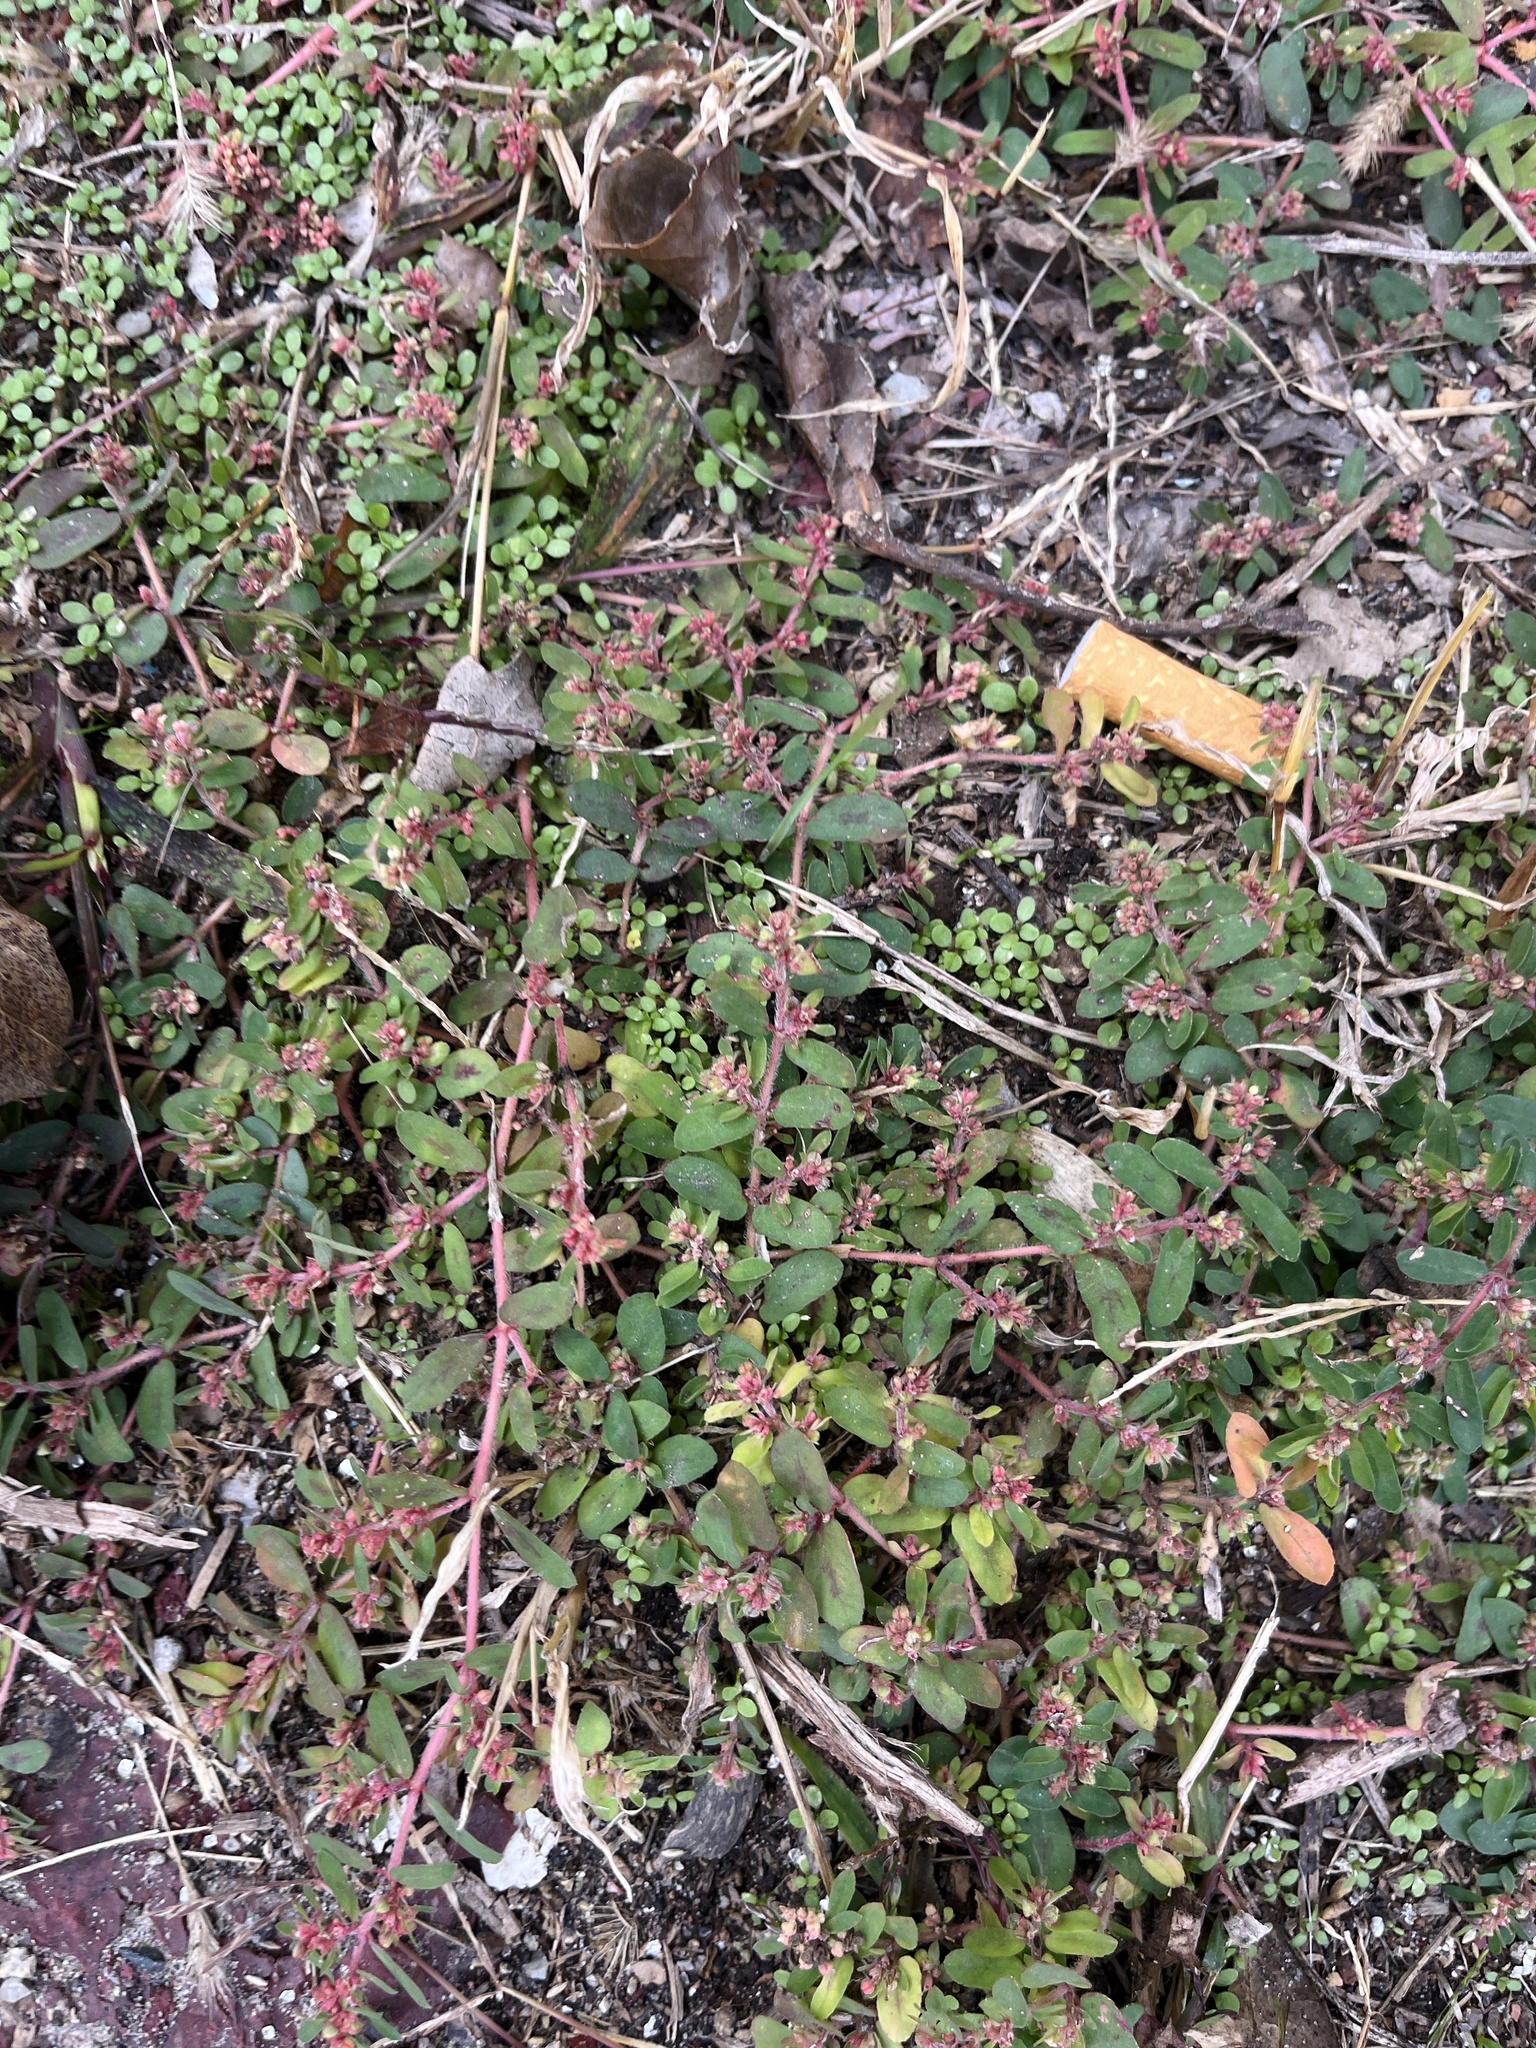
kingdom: Plantae
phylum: Tracheophyta
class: Magnoliopsida
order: Malpighiales
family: Euphorbiaceae
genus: Euphorbia
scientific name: Euphorbia maculata
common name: Spotted spurge
